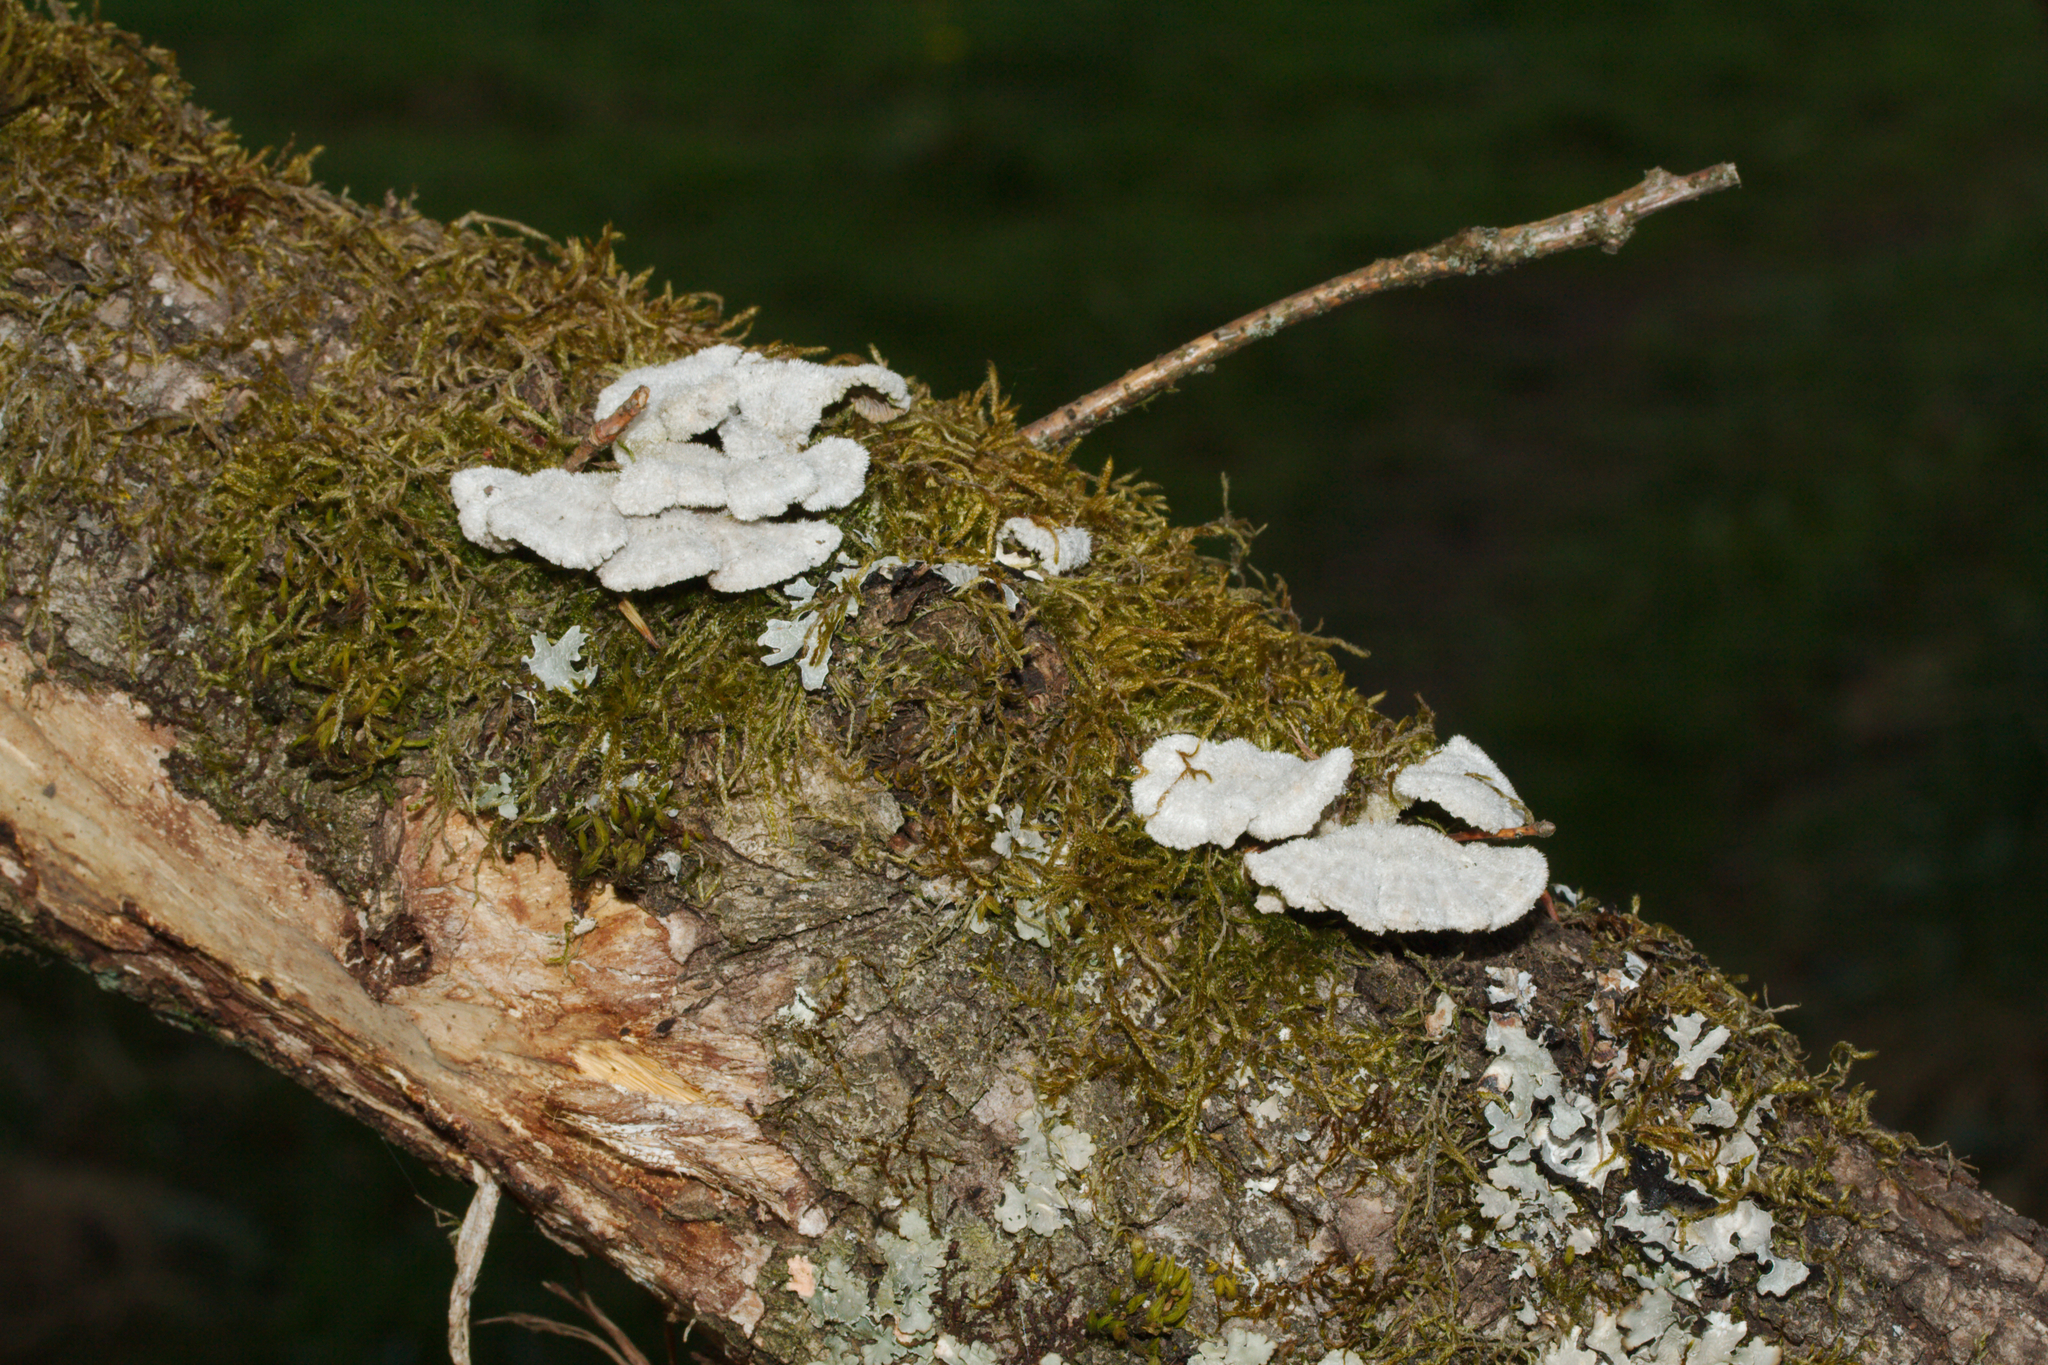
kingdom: Fungi
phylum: Basidiomycota
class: Agaricomycetes
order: Agaricales
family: Schizophyllaceae
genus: Schizophyllum
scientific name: Schizophyllum commune
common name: Common porecrust
